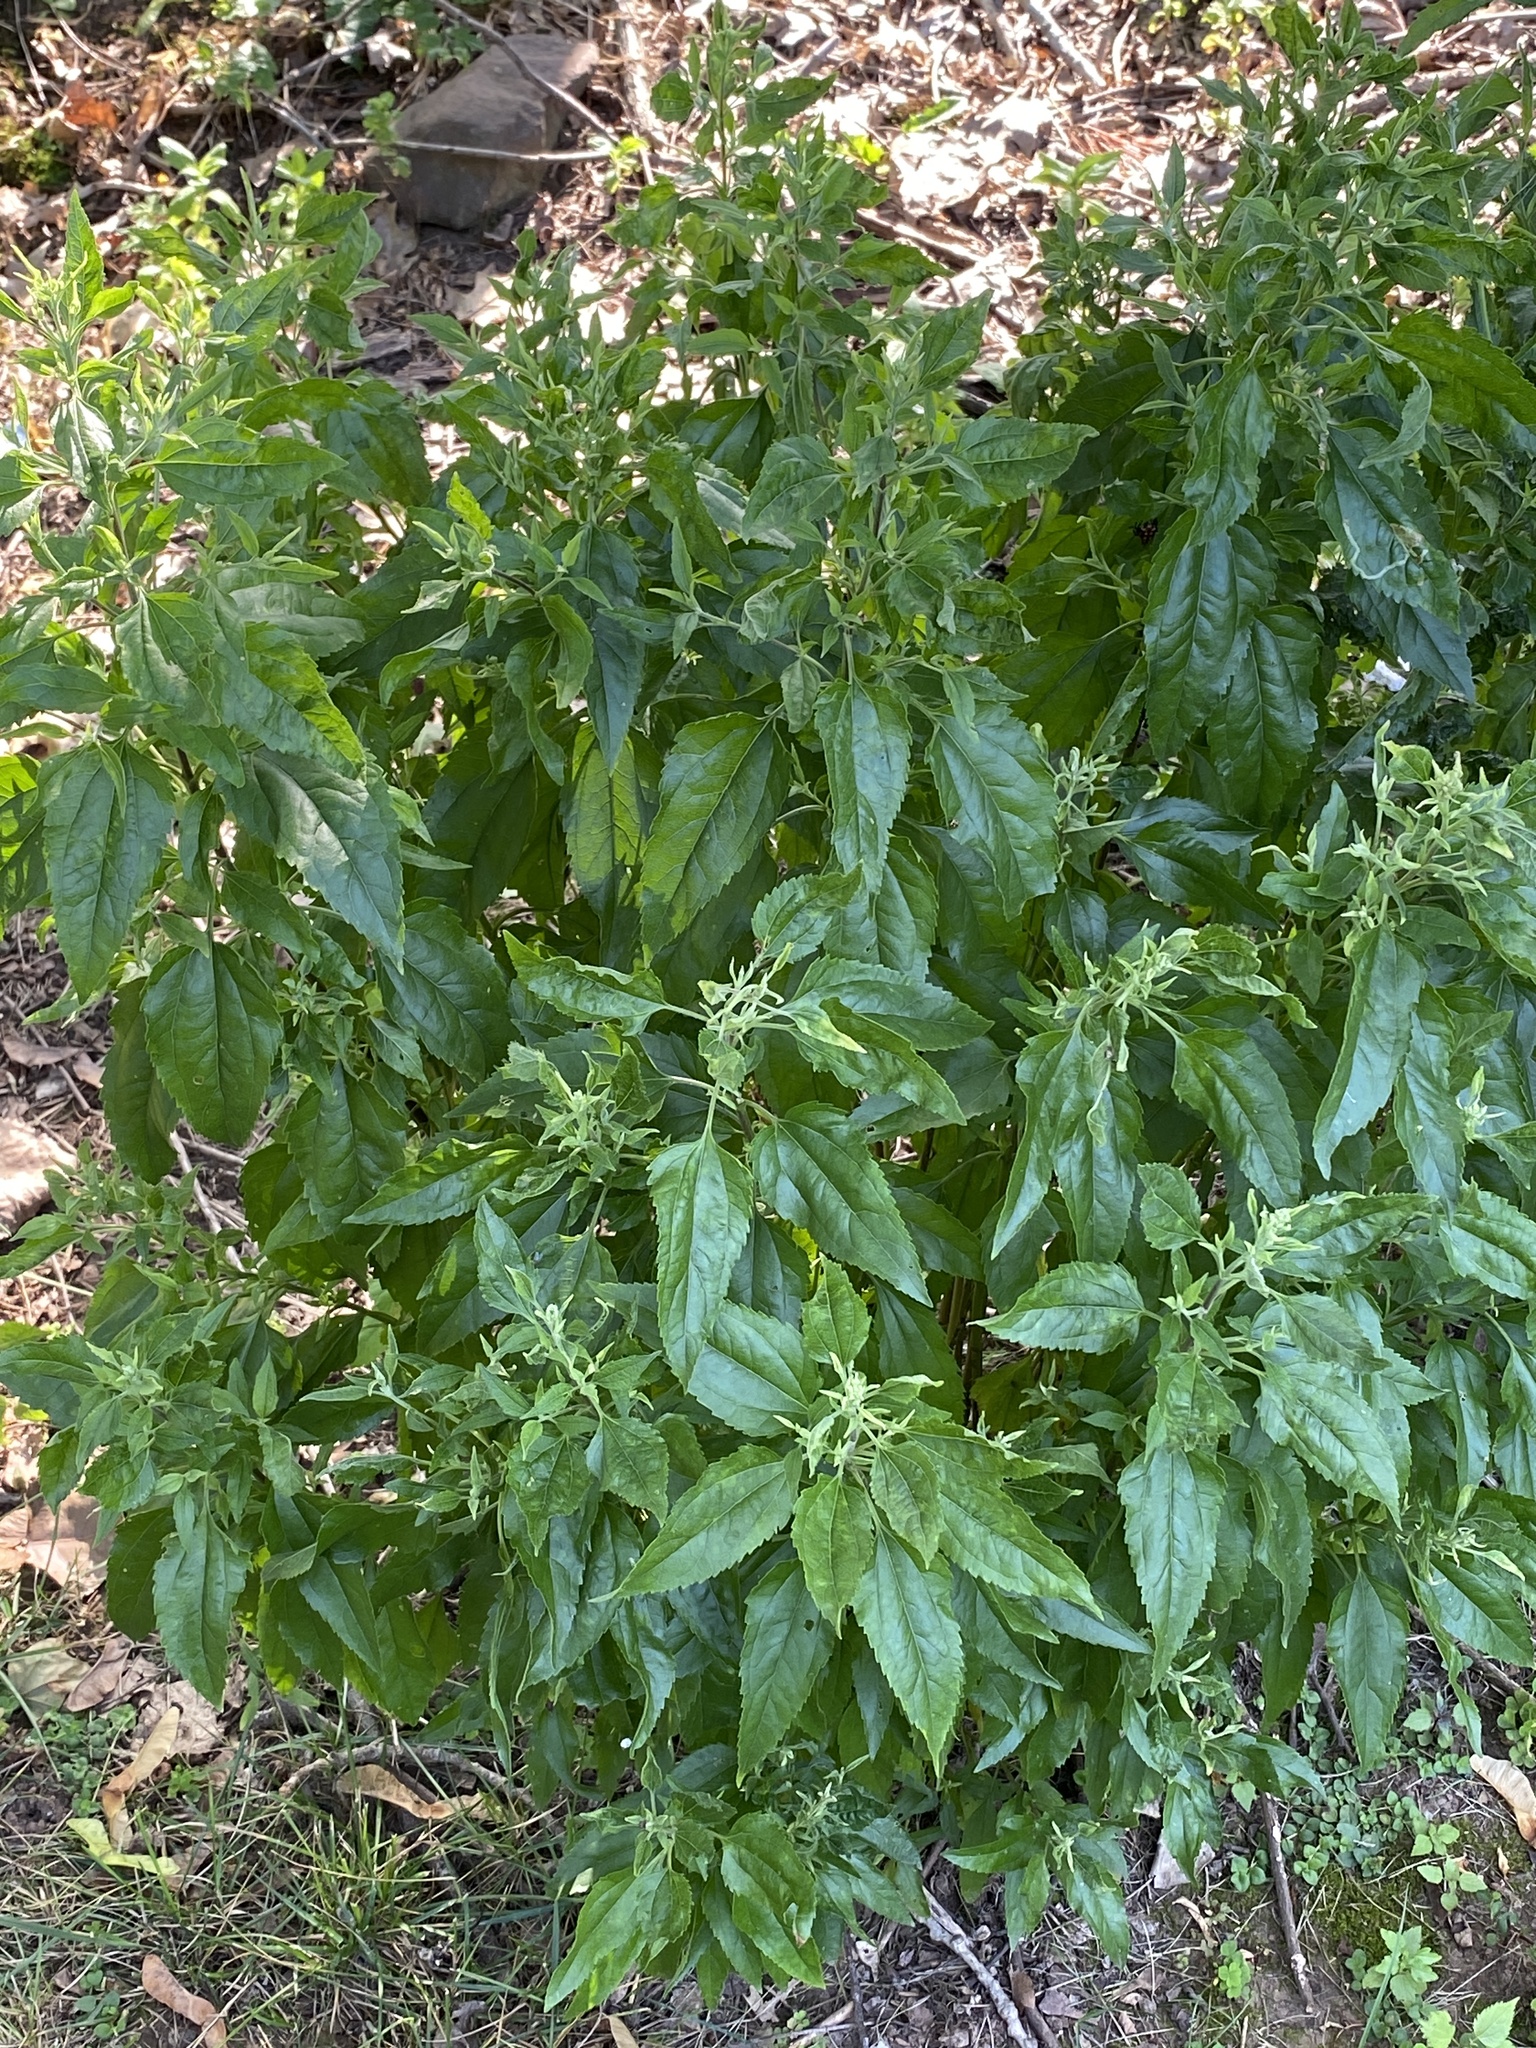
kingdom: Plantae
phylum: Tracheophyta
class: Magnoliopsida
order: Asterales
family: Asteraceae
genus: Eupatorium
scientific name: Eupatorium serotinum
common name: Late boneset
